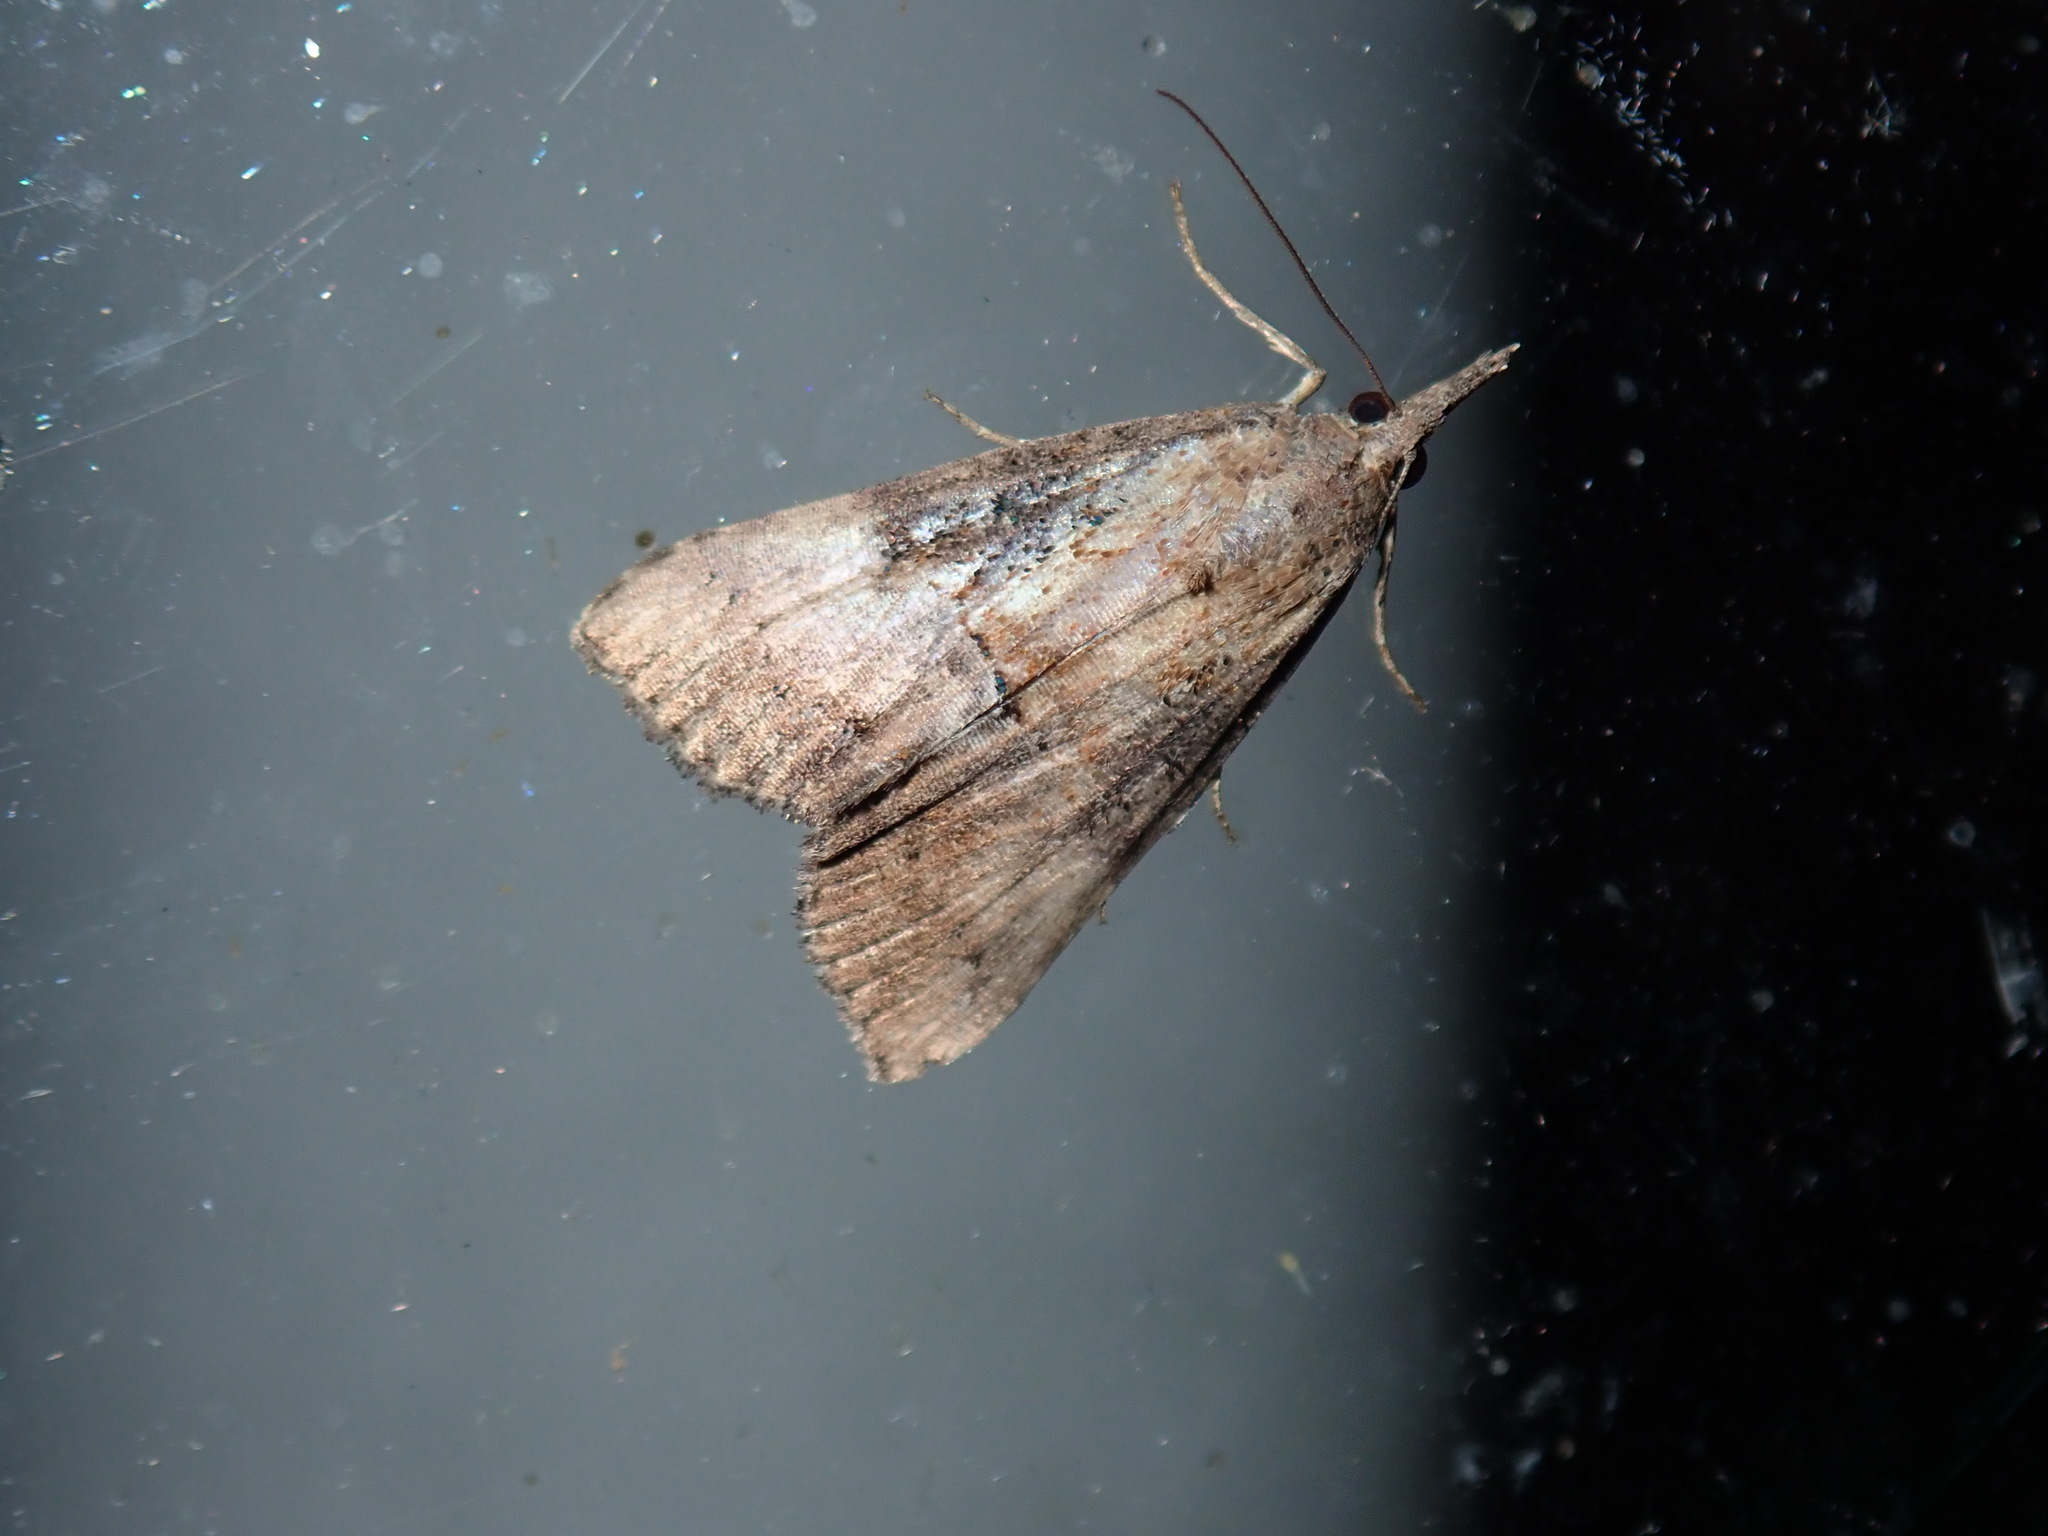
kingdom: Animalia
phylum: Arthropoda
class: Insecta
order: Lepidoptera
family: Erebidae
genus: Hypena
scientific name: Hypena scabra
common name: Green cloverworm
